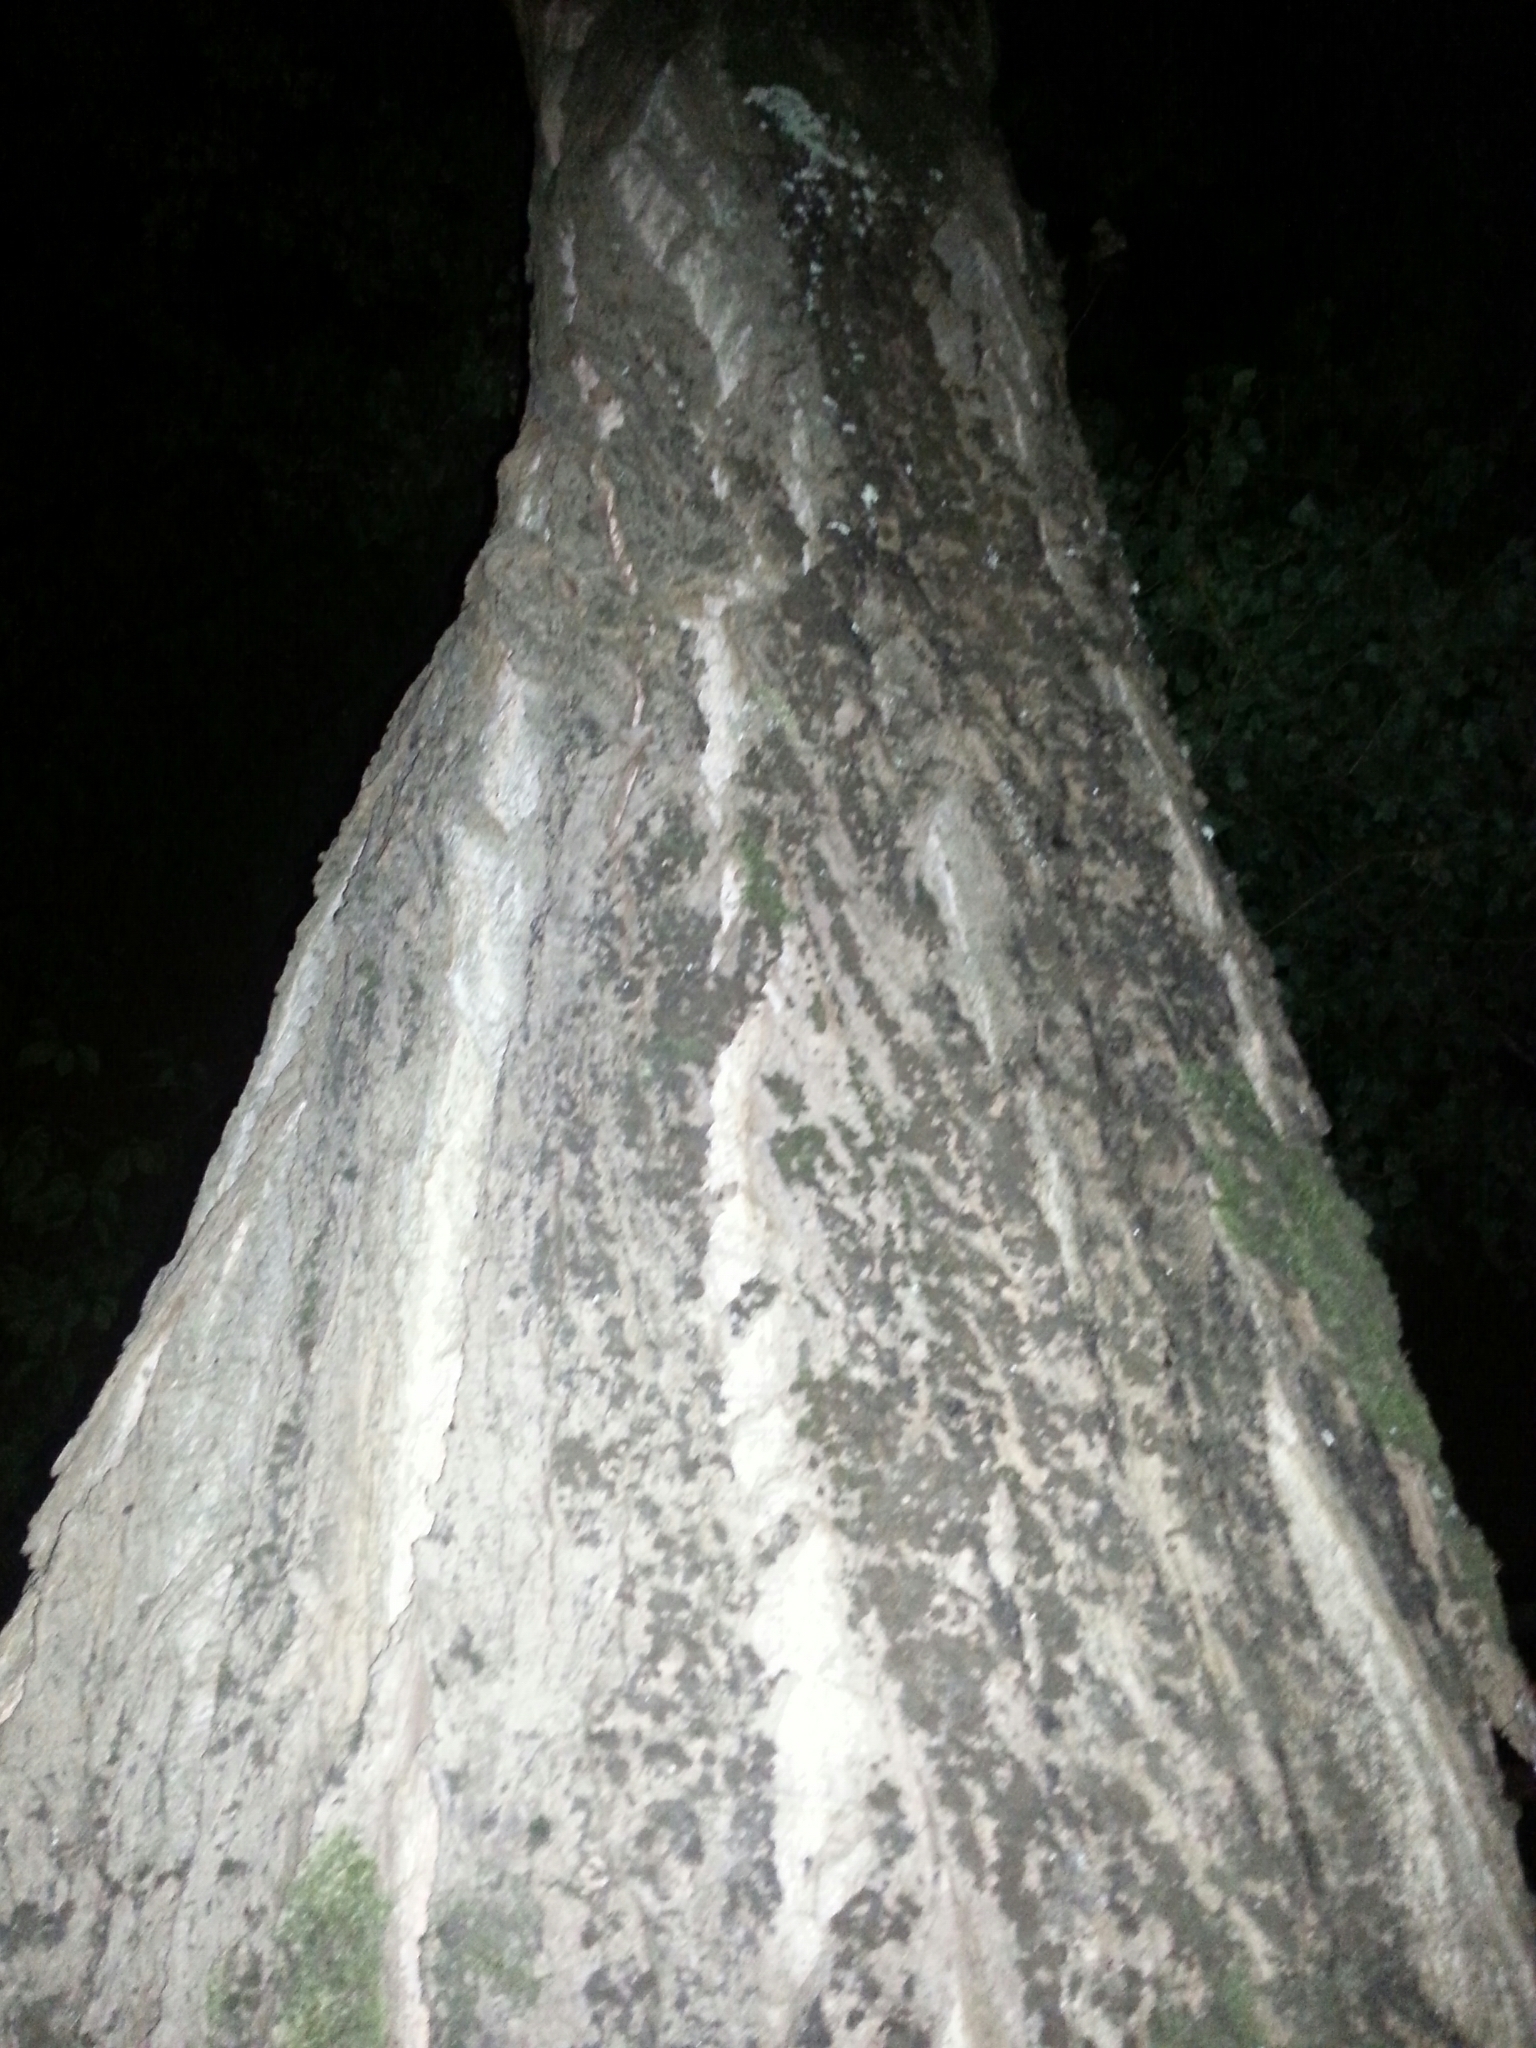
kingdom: Plantae
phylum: Tracheophyta
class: Magnoliopsida
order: Malpighiales
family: Salicaceae
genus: Populus
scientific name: Populus trichocarpa
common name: Black cottonwood
